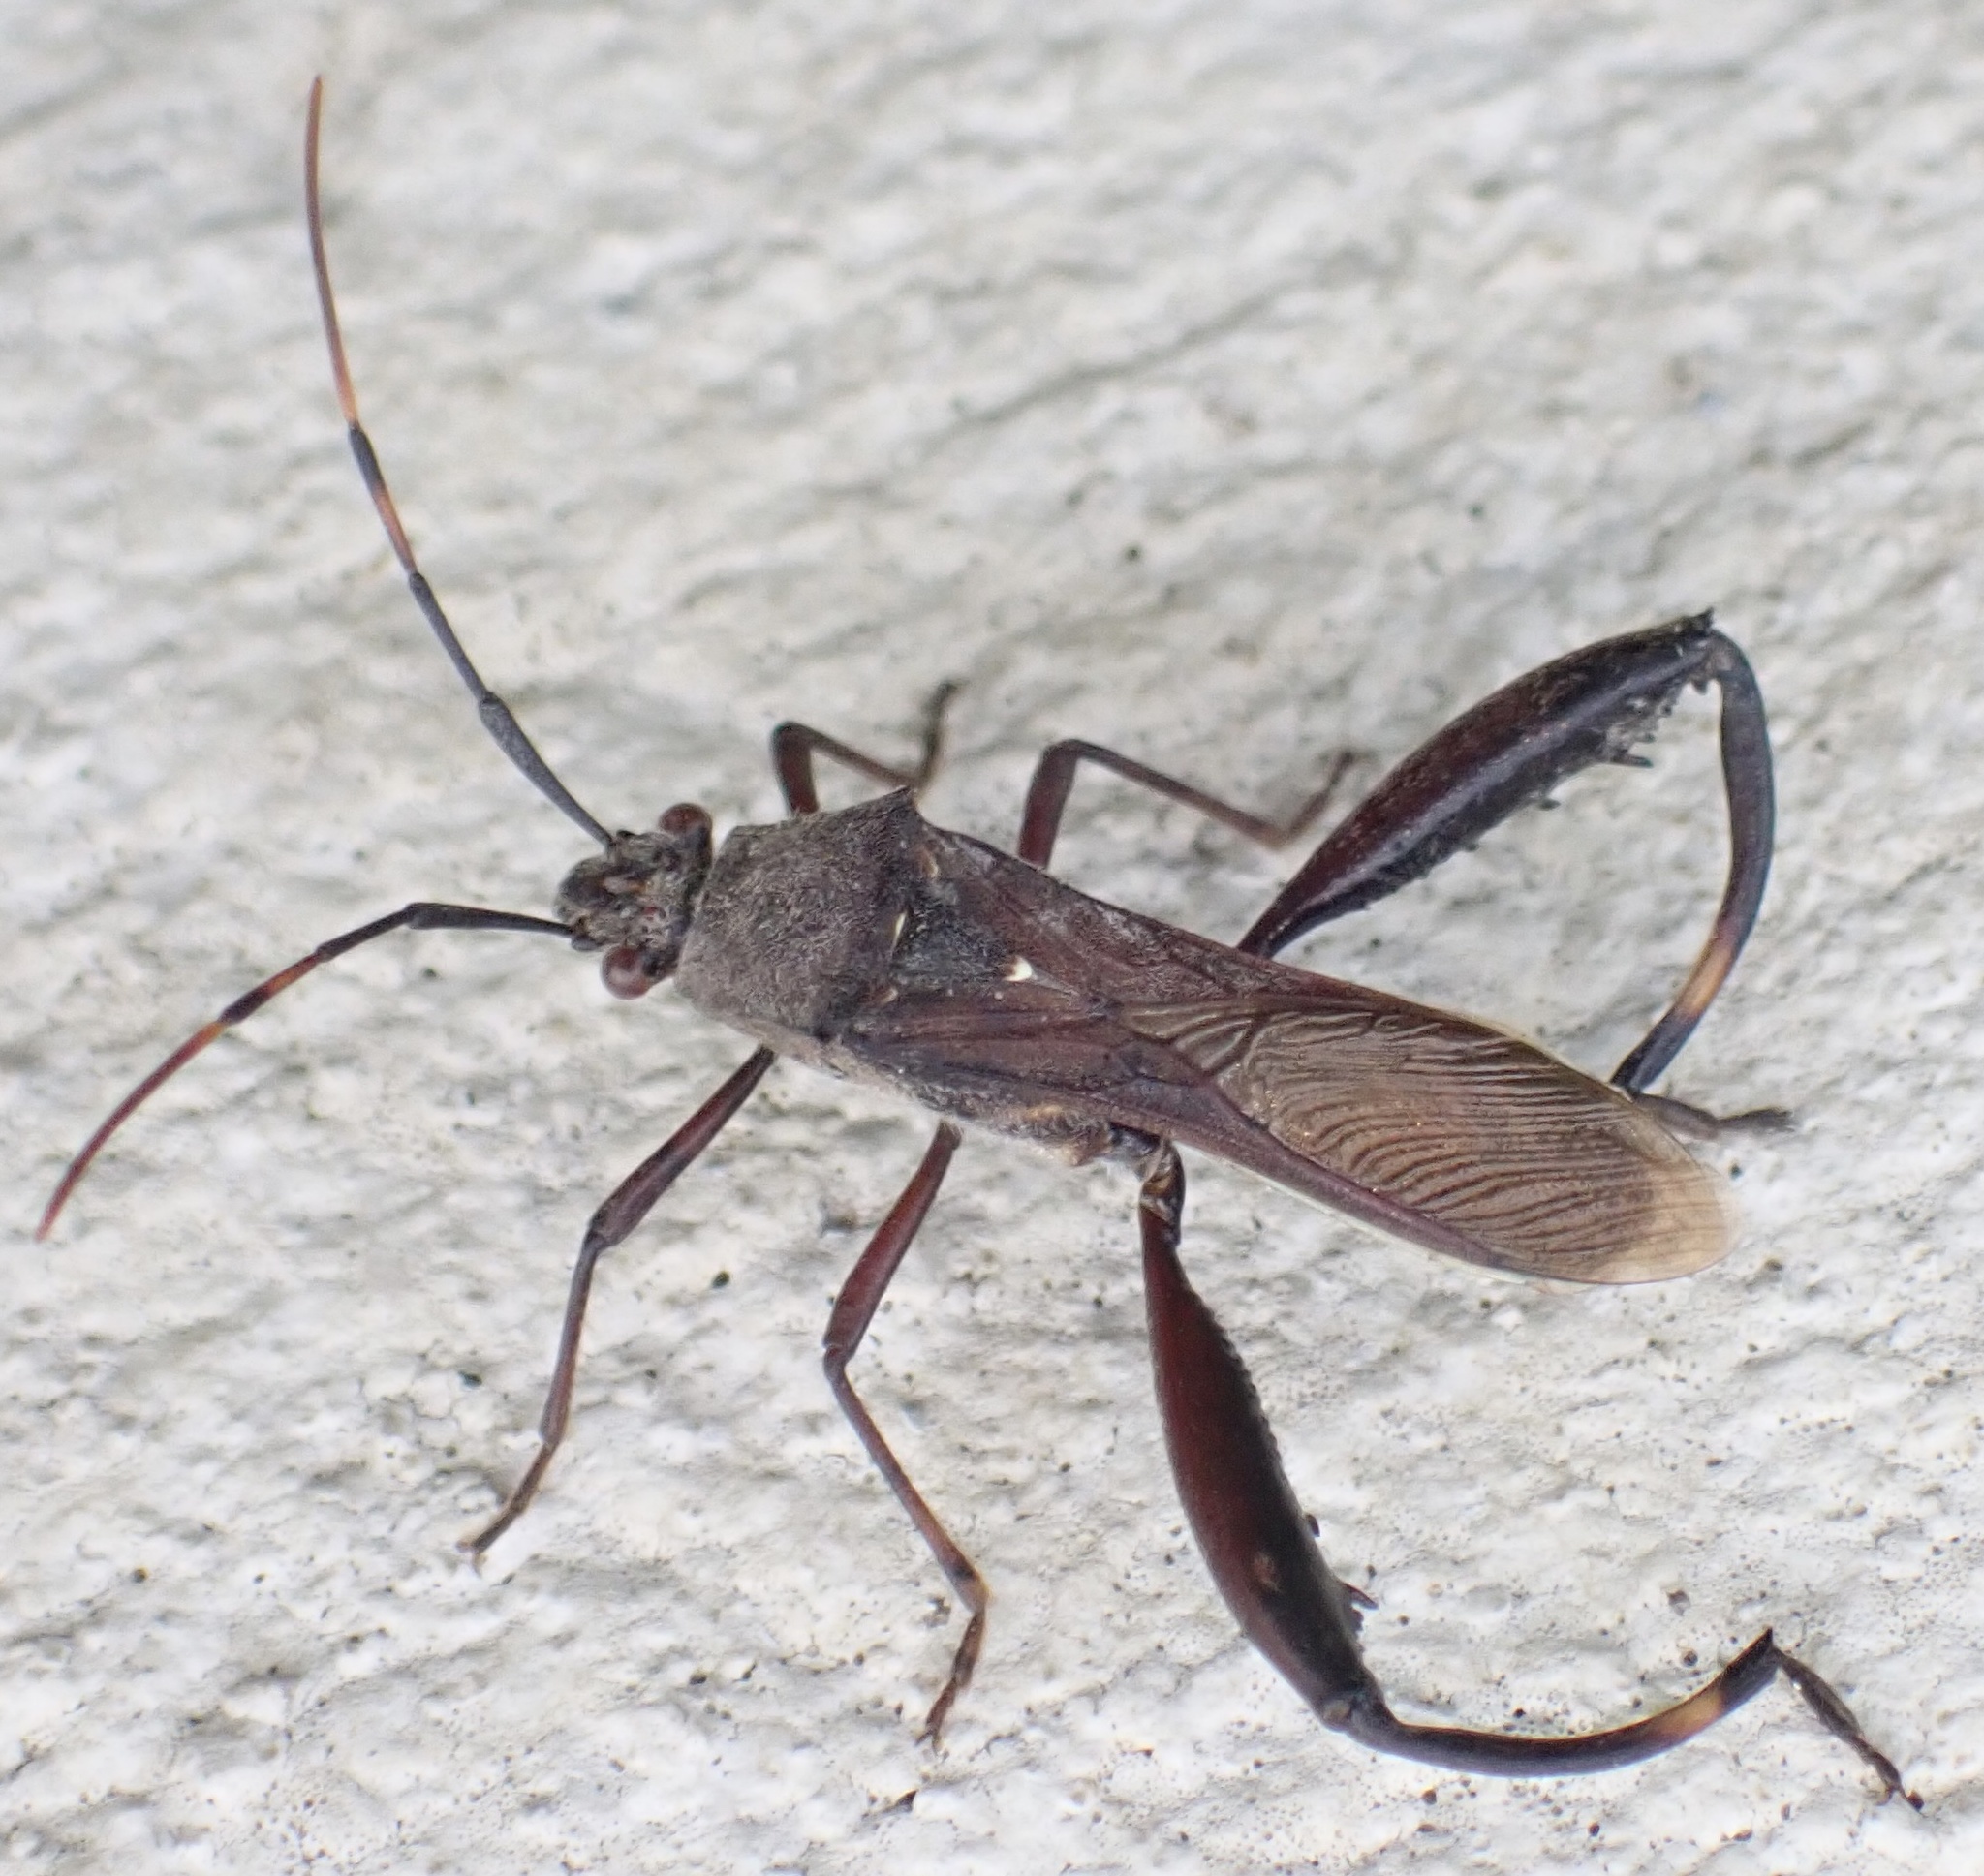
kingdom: Animalia
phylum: Arthropoda
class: Insecta
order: Hemiptera
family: Alydidae
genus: Mirperus
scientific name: Mirperus jaculus
